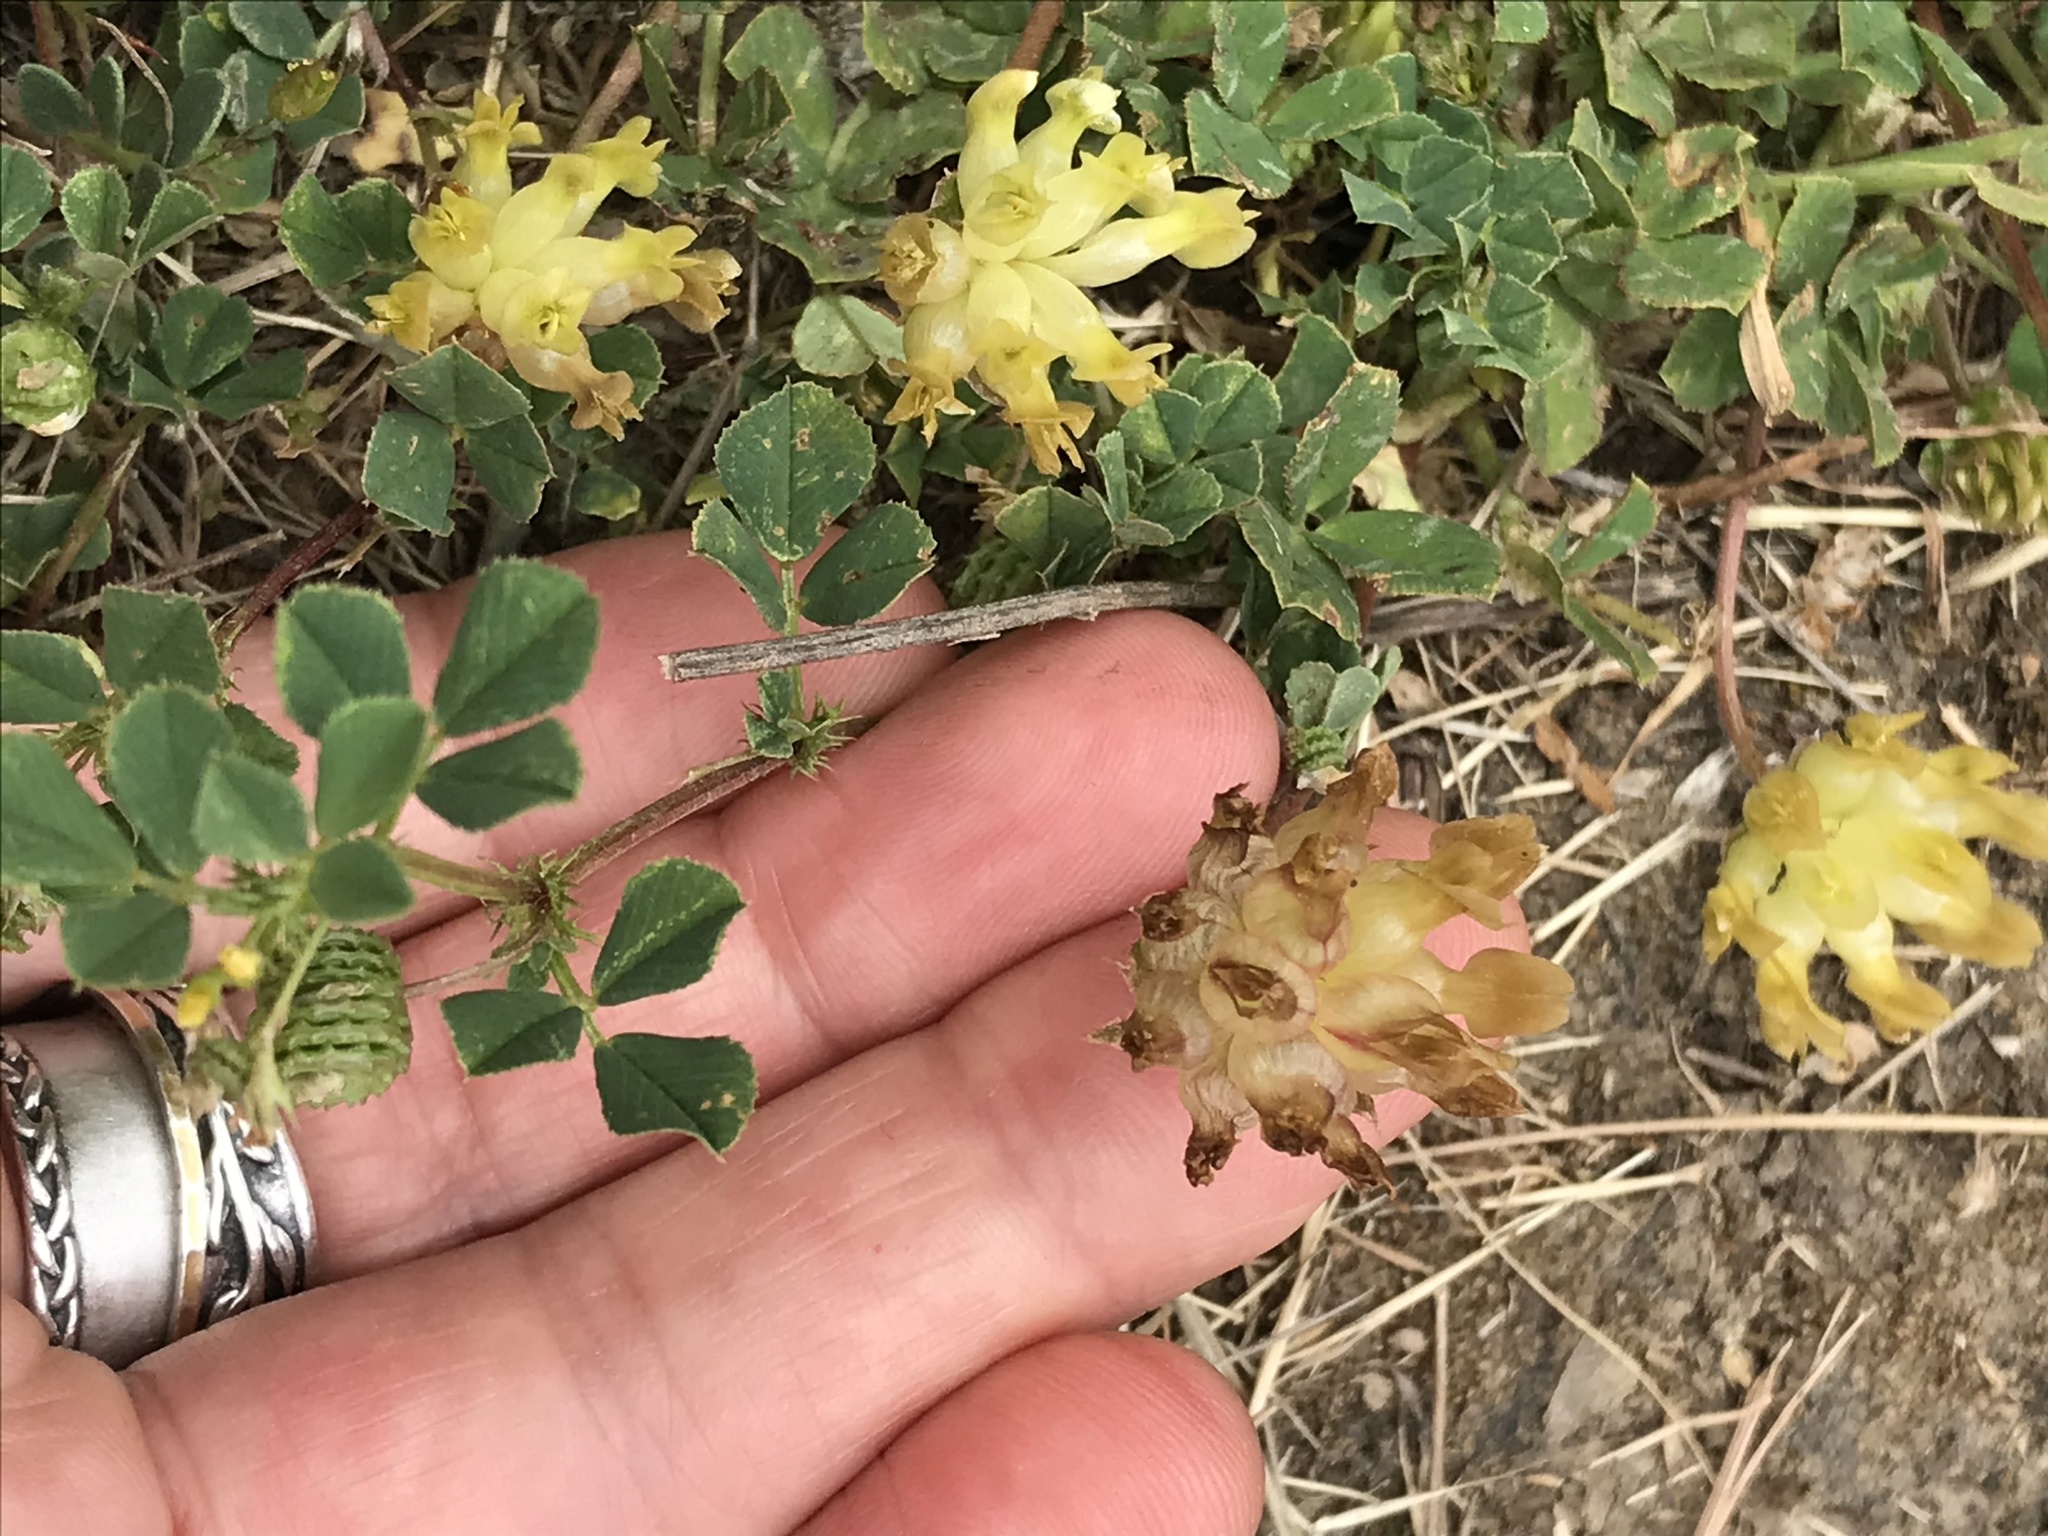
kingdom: Plantae
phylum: Tracheophyta
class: Magnoliopsida
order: Fabales
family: Fabaceae
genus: Trifolium
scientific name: Trifolium fucatum
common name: Puff clover
